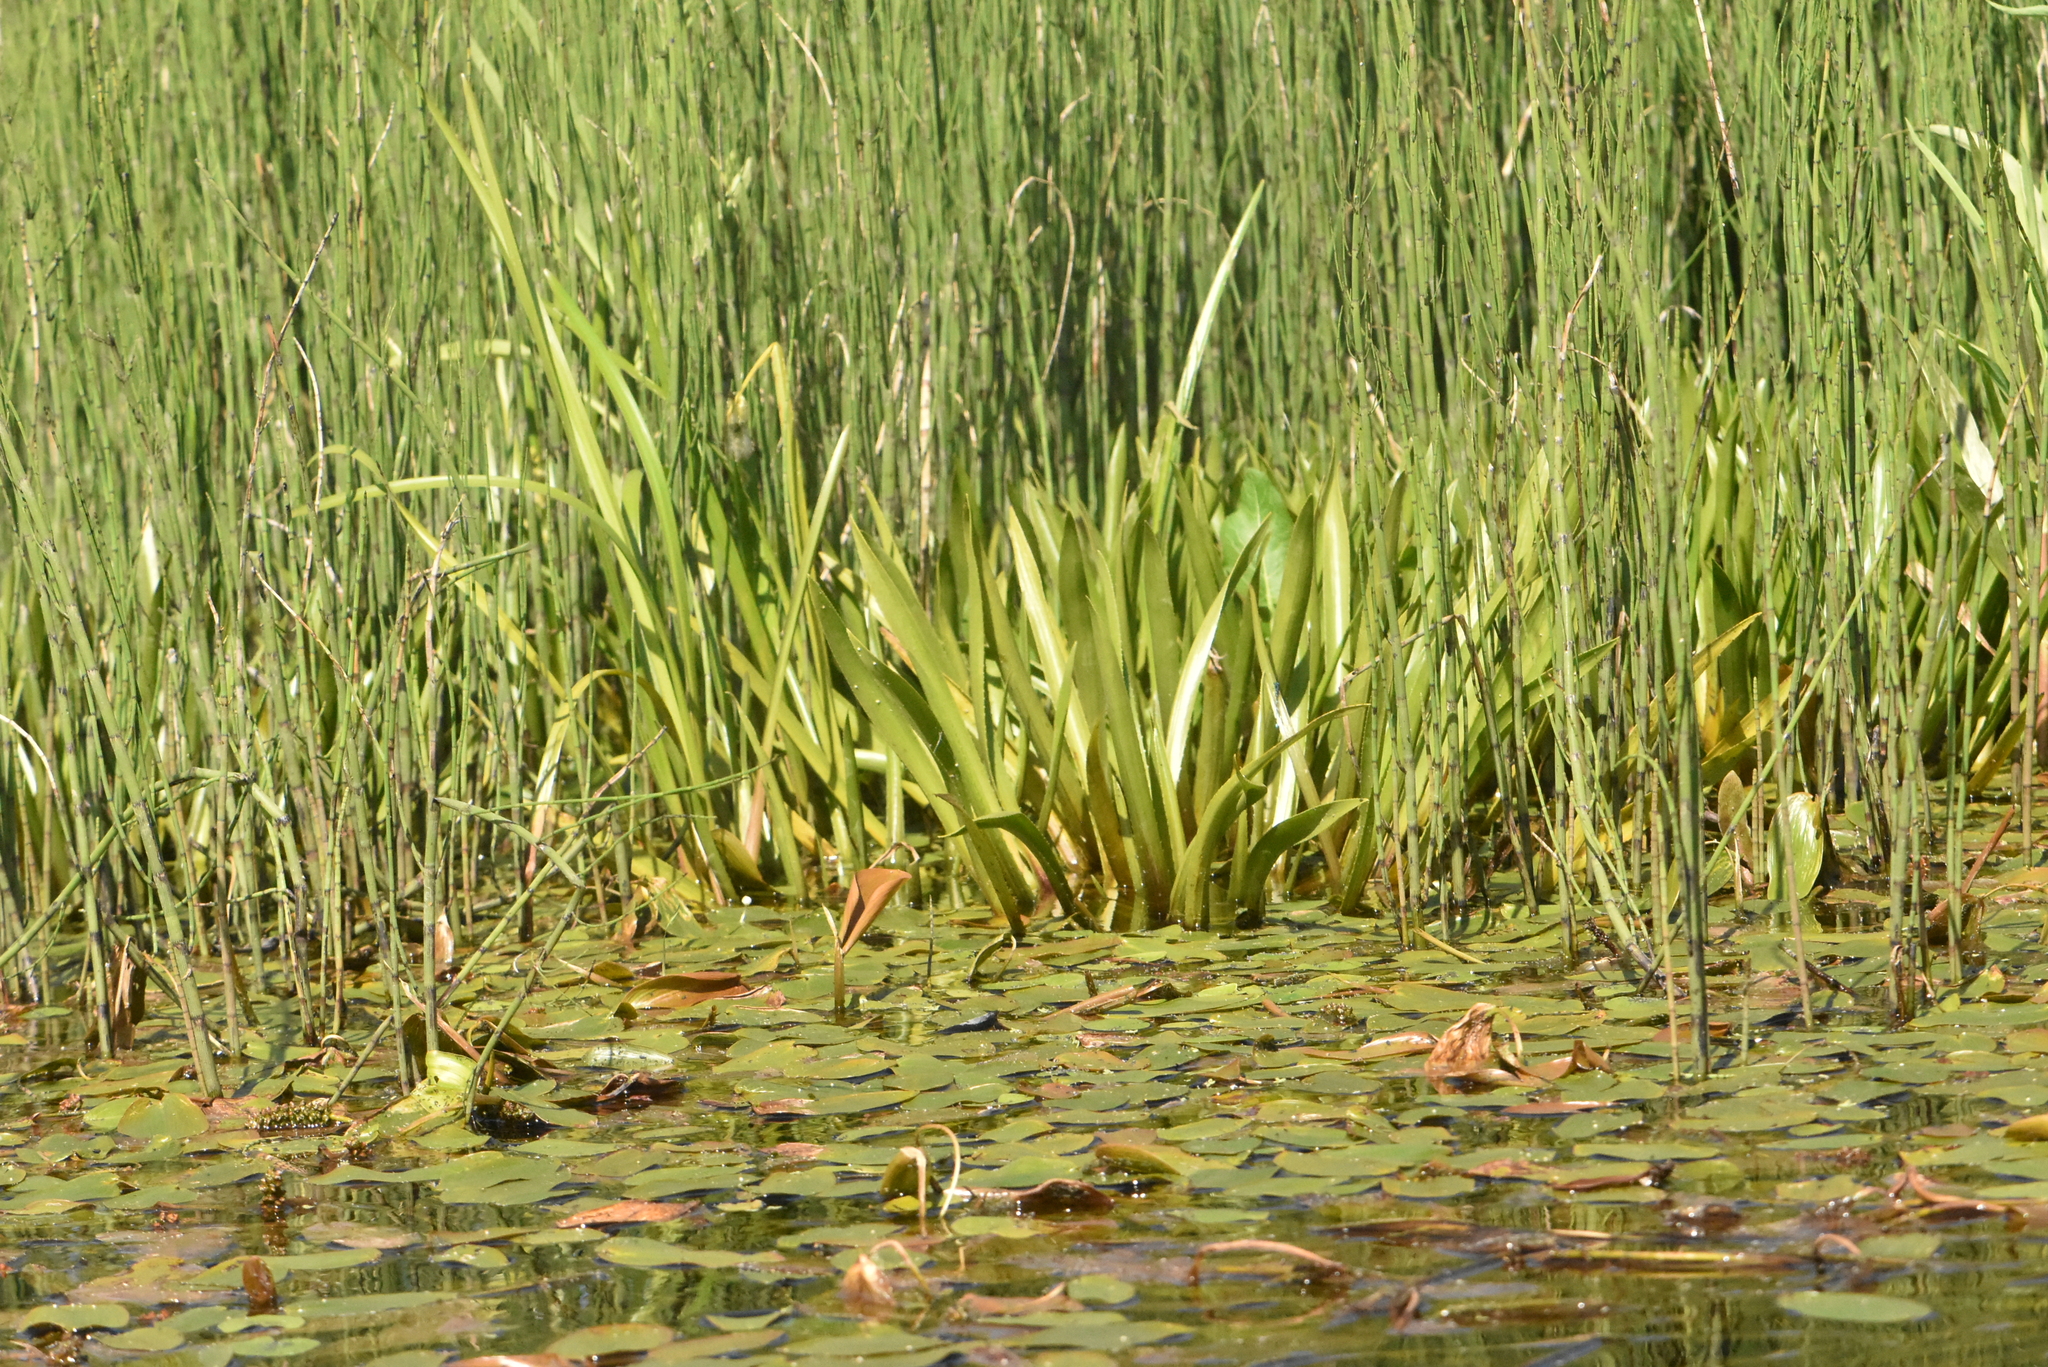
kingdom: Plantae
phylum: Tracheophyta
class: Liliopsida
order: Alismatales
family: Hydrocharitaceae
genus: Stratiotes
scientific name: Stratiotes aloides
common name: Water-soldier
